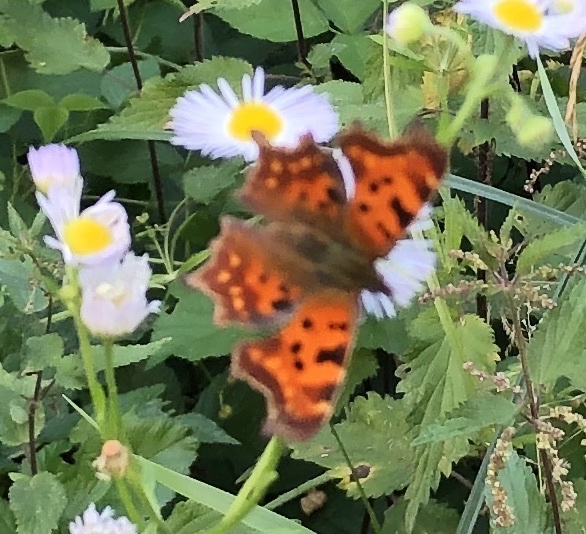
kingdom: Animalia
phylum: Arthropoda
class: Insecta
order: Lepidoptera
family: Nymphalidae
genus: Polygonia
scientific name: Polygonia c-album
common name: Comma
